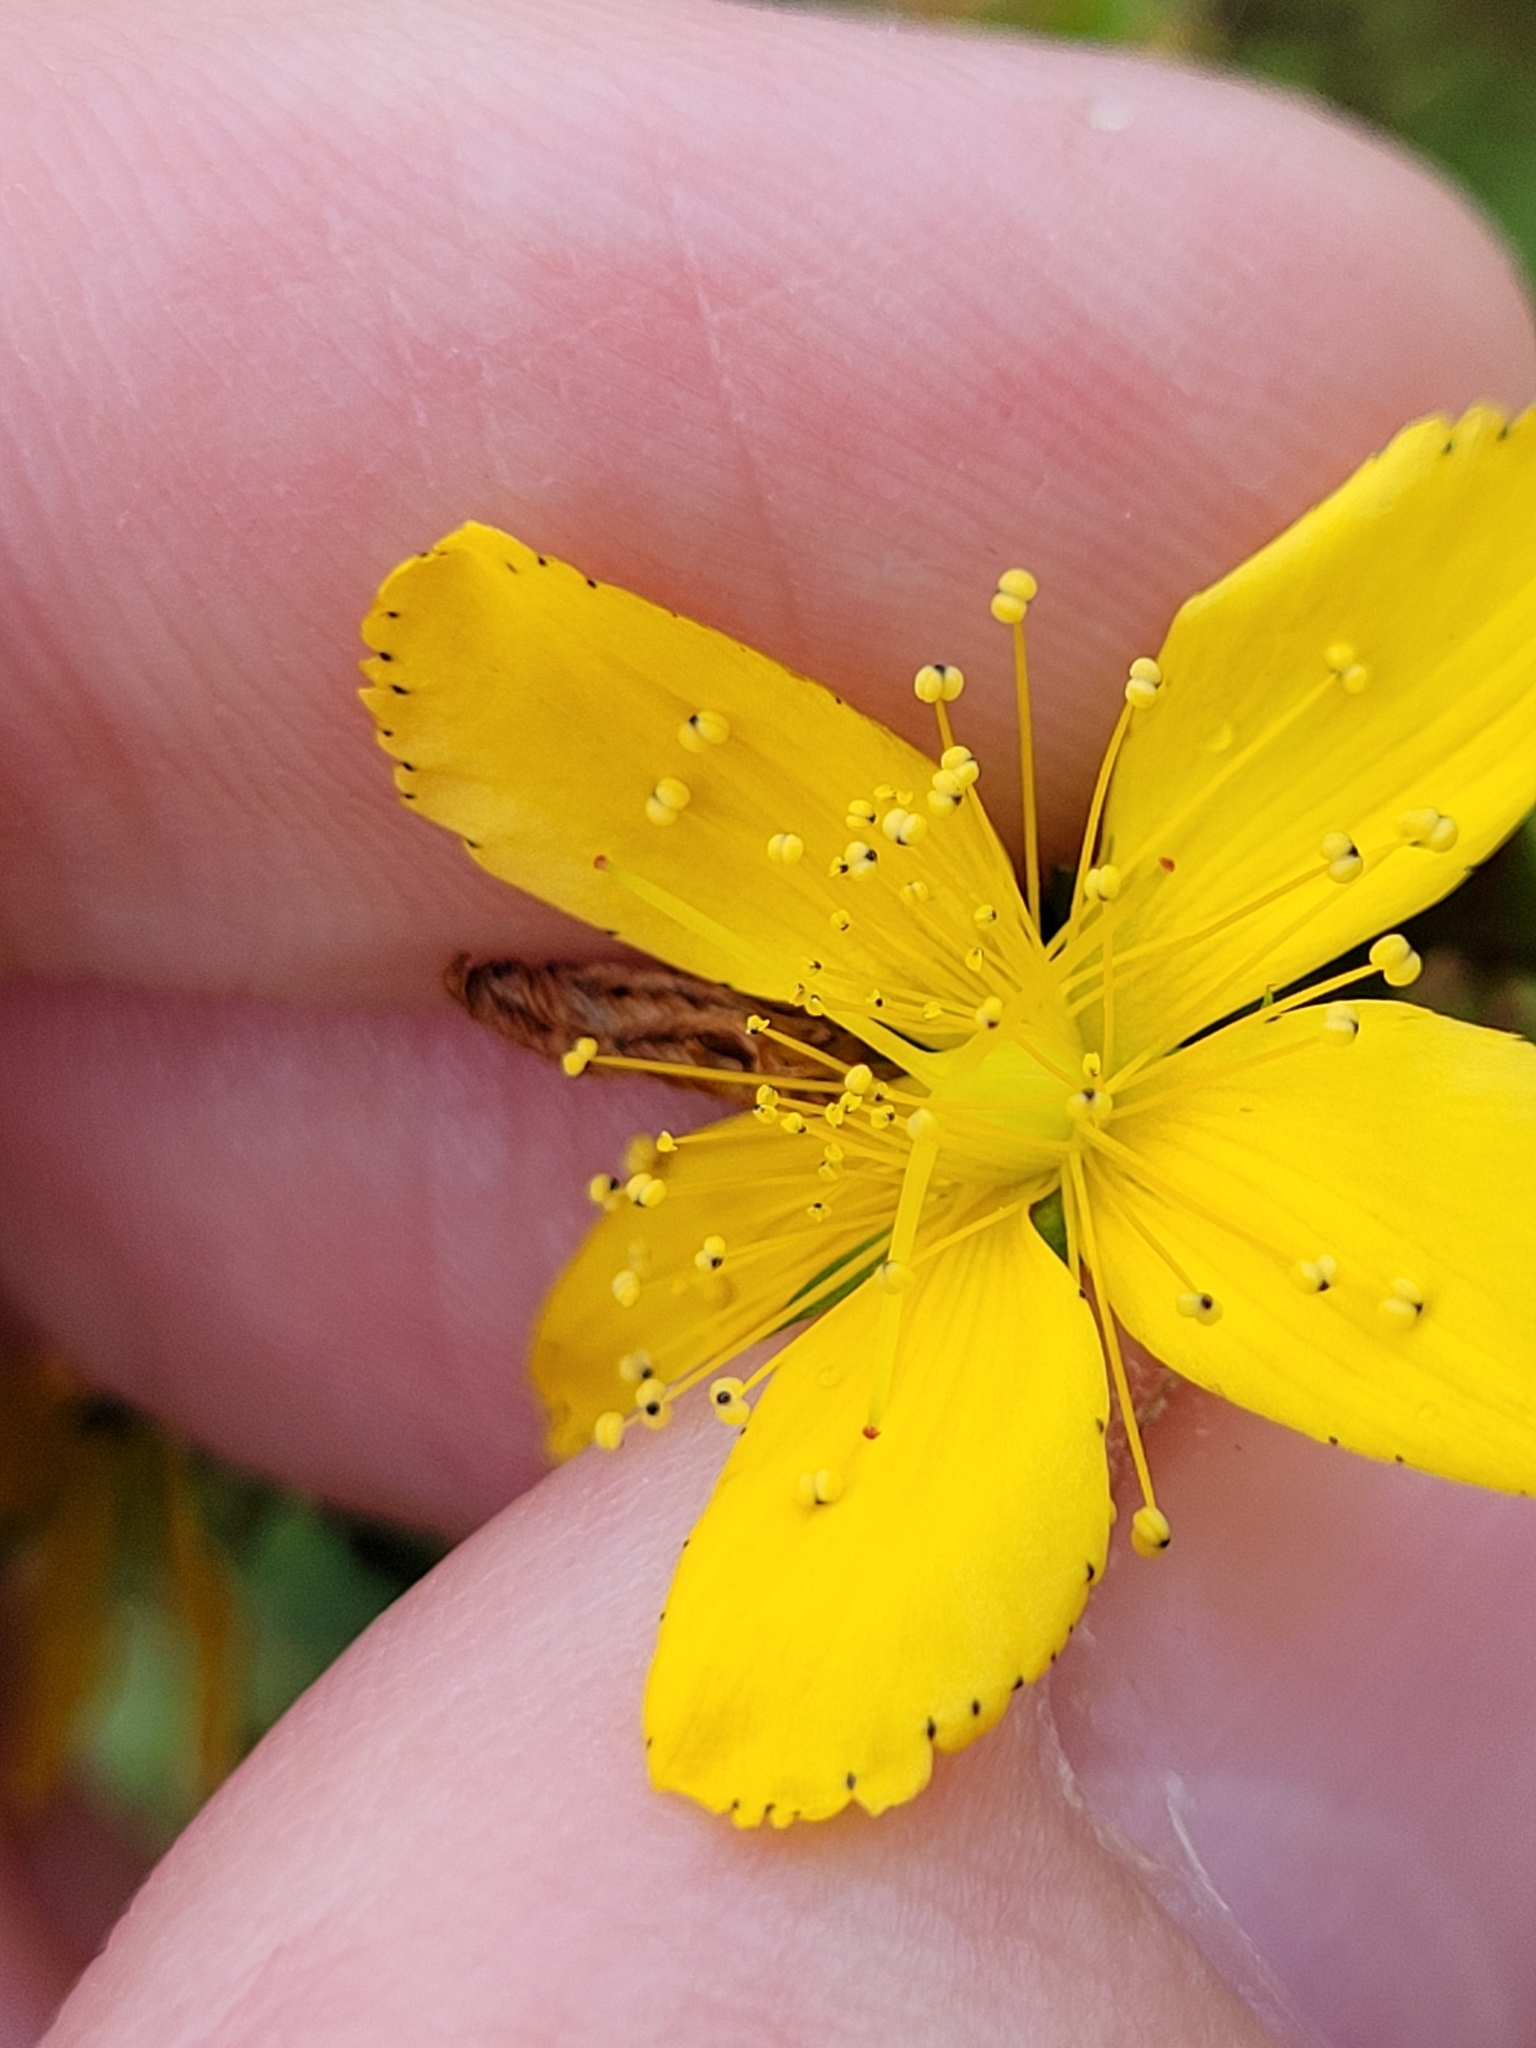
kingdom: Plantae
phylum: Tracheophyta
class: Magnoliopsida
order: Malpighiales
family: Hypericaceae
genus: Hypericum
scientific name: Hypericum perforatum
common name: Common st. johnswort
